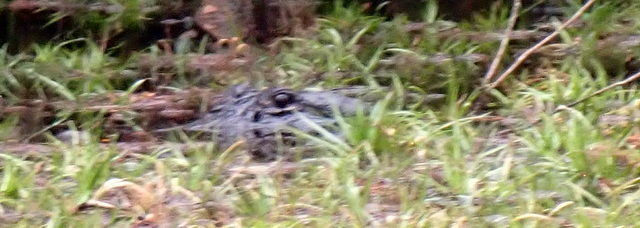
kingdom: Animalia
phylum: Chordata
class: Crocodylia
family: Alligatoridae
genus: Alligator
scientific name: Alligator mississippiensis
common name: American alligator
